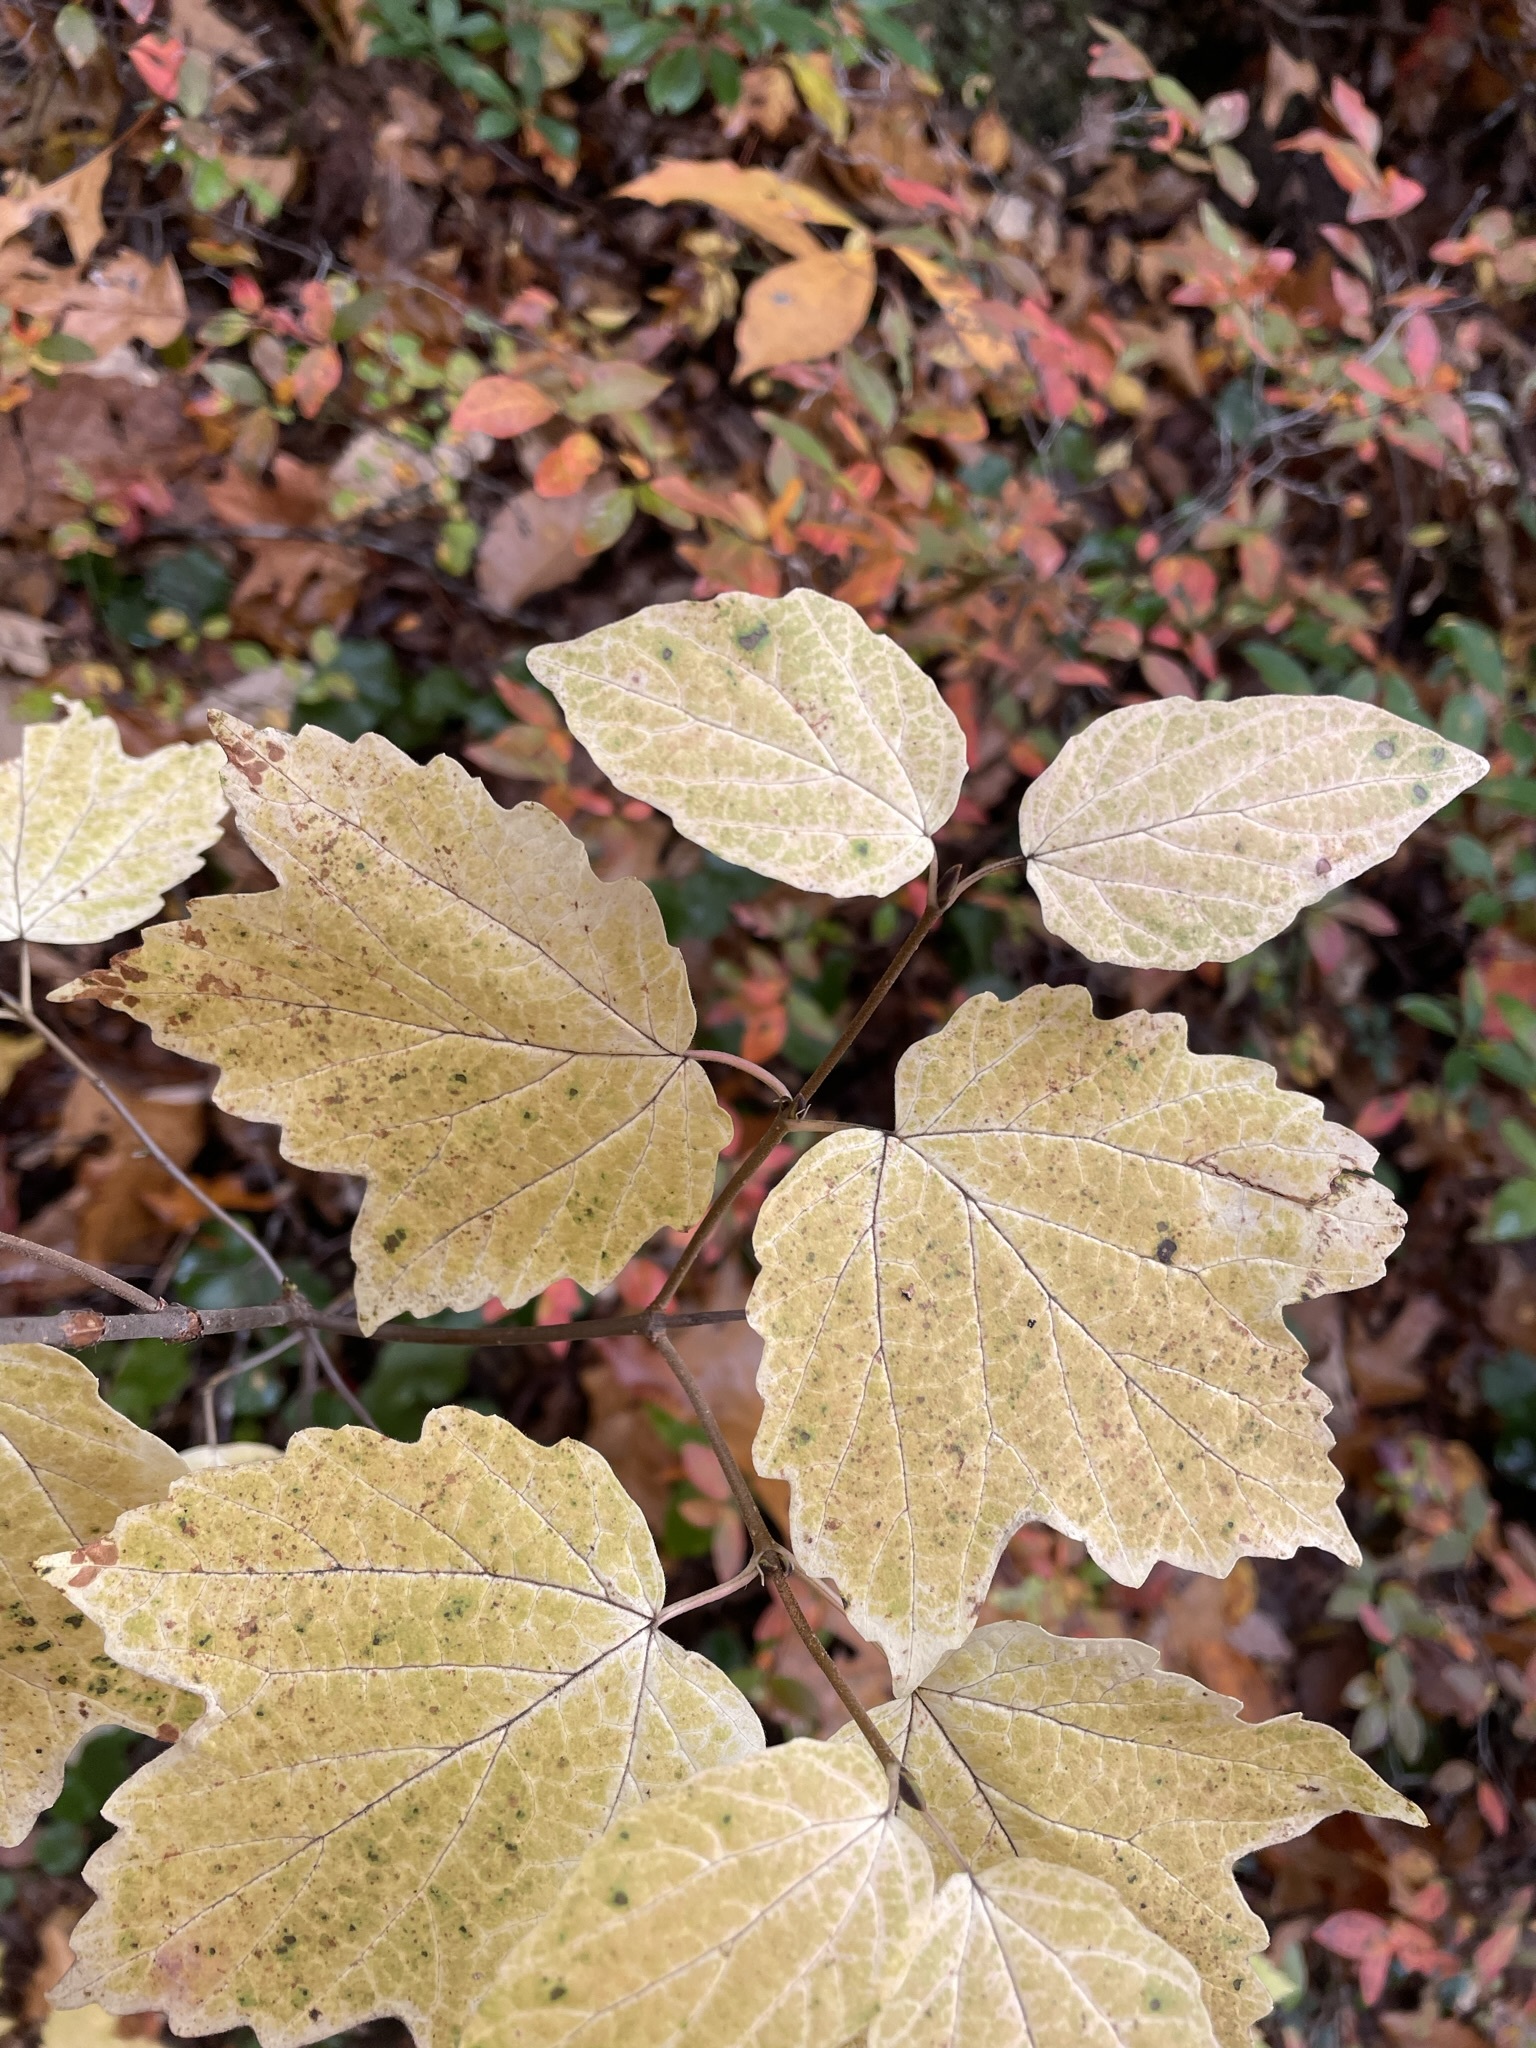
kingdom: Plantae
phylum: Tracheophyta
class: Magnoliopsida
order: Dipsacales
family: Viburnaceae
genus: Viburnum
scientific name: Viburnum acerifolium
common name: Dockmackie
